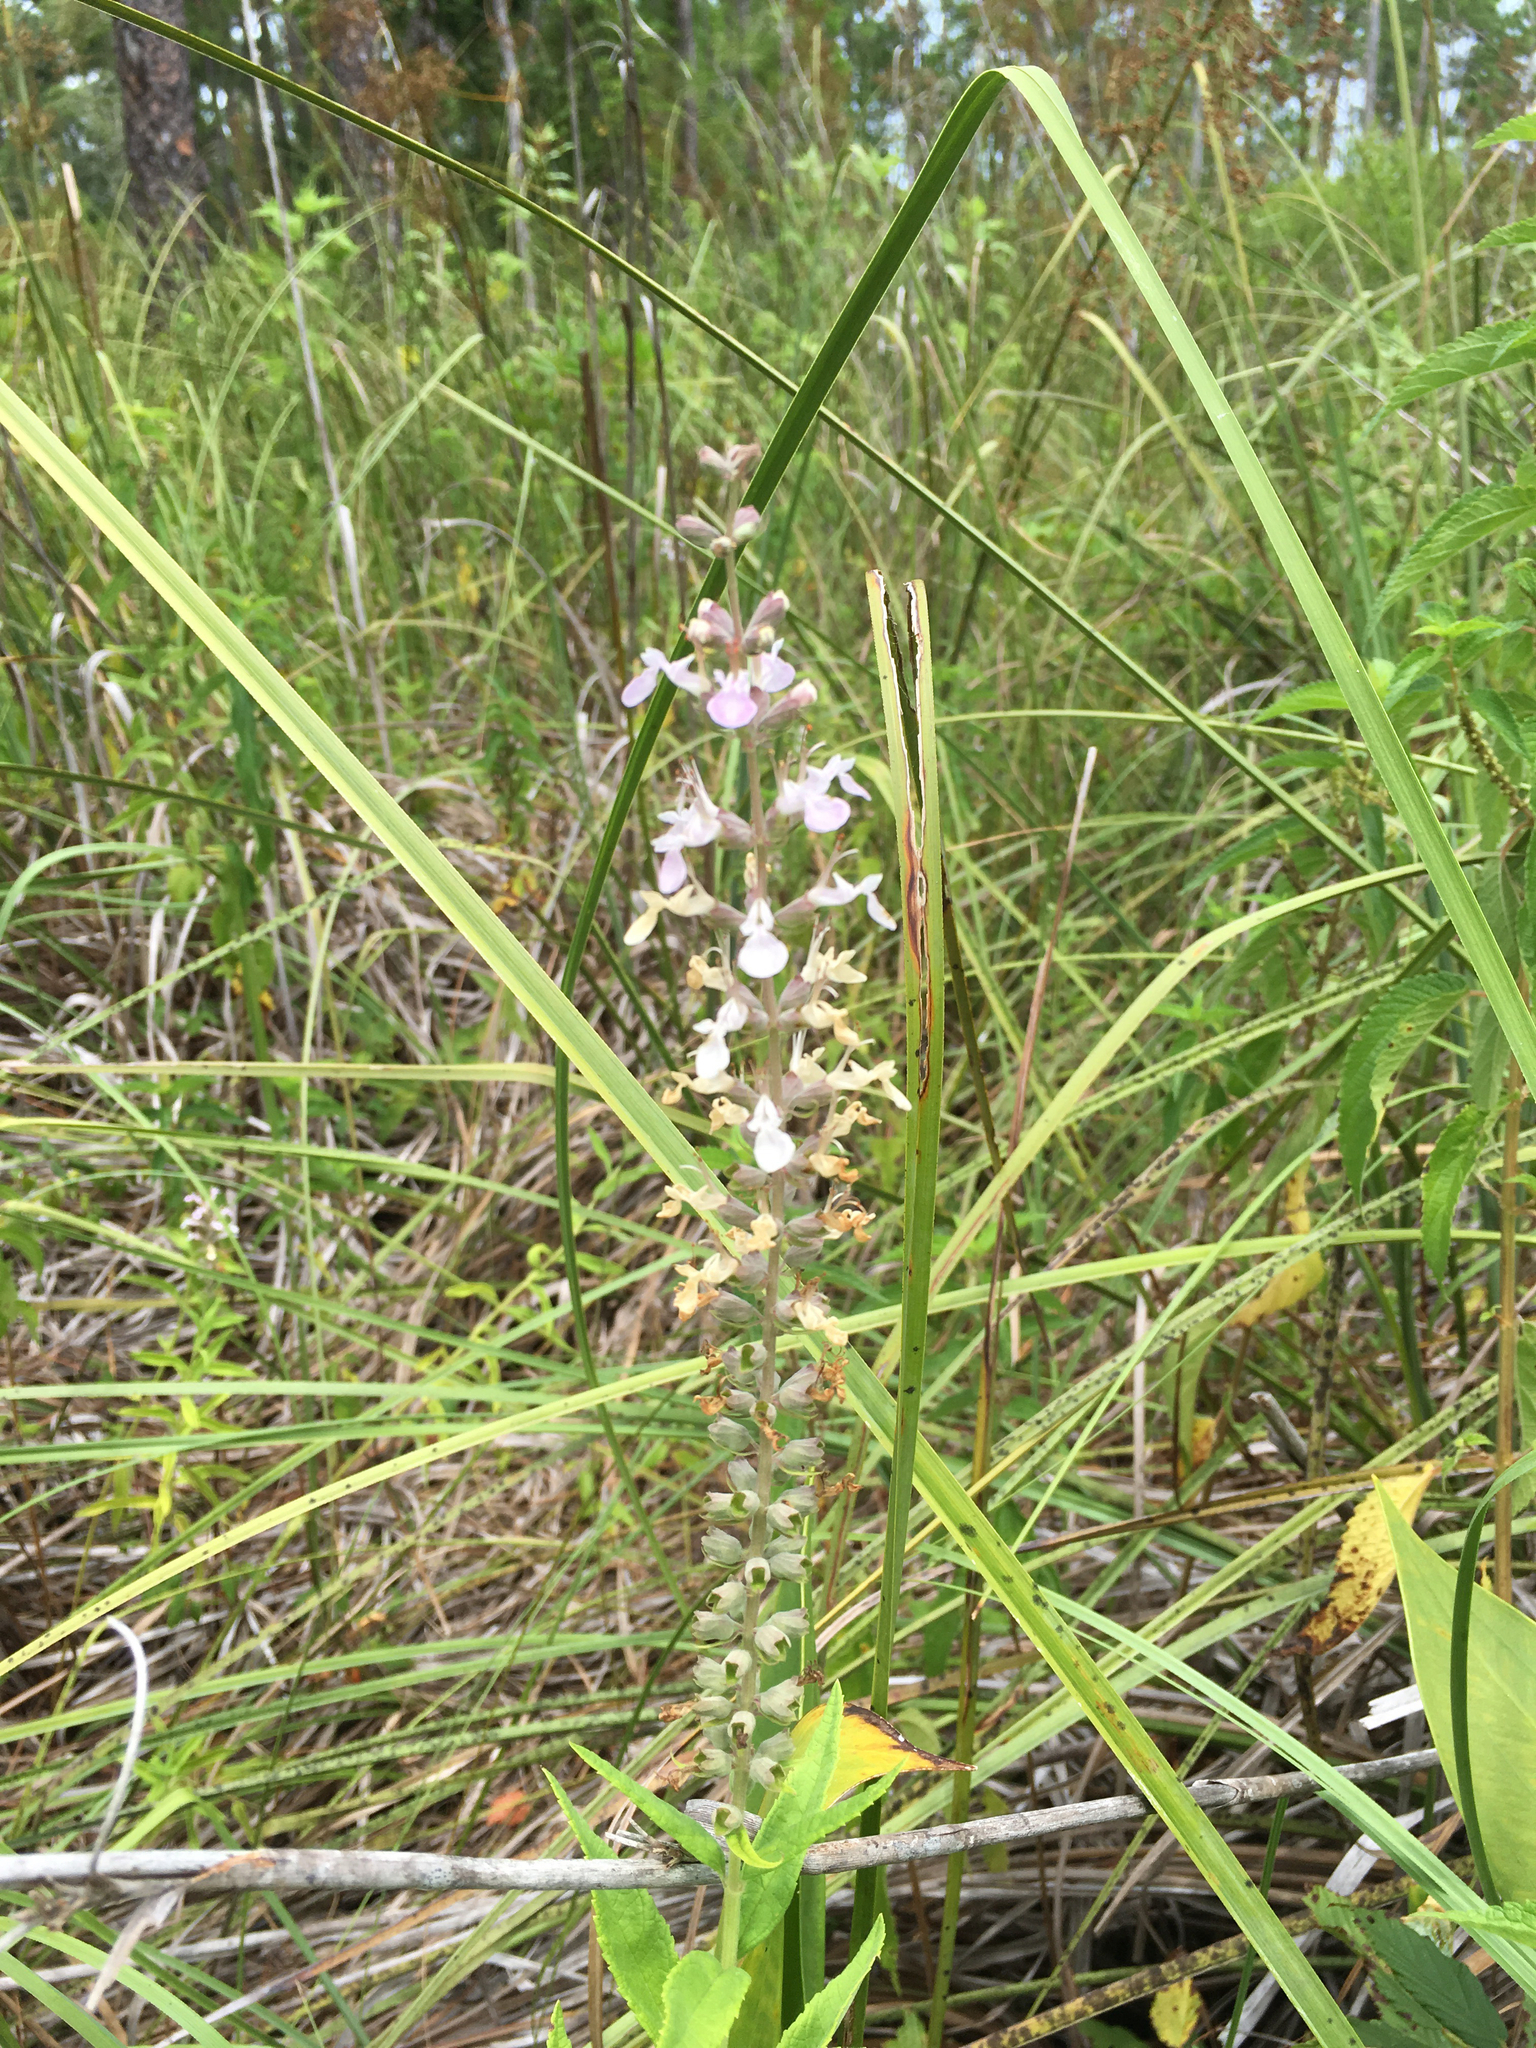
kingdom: Plantae
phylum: Tracheophyta
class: Magnoliopsida
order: Lamiales
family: Lamiaceae
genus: Teucrium
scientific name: Teucrium canadense
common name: American germander
